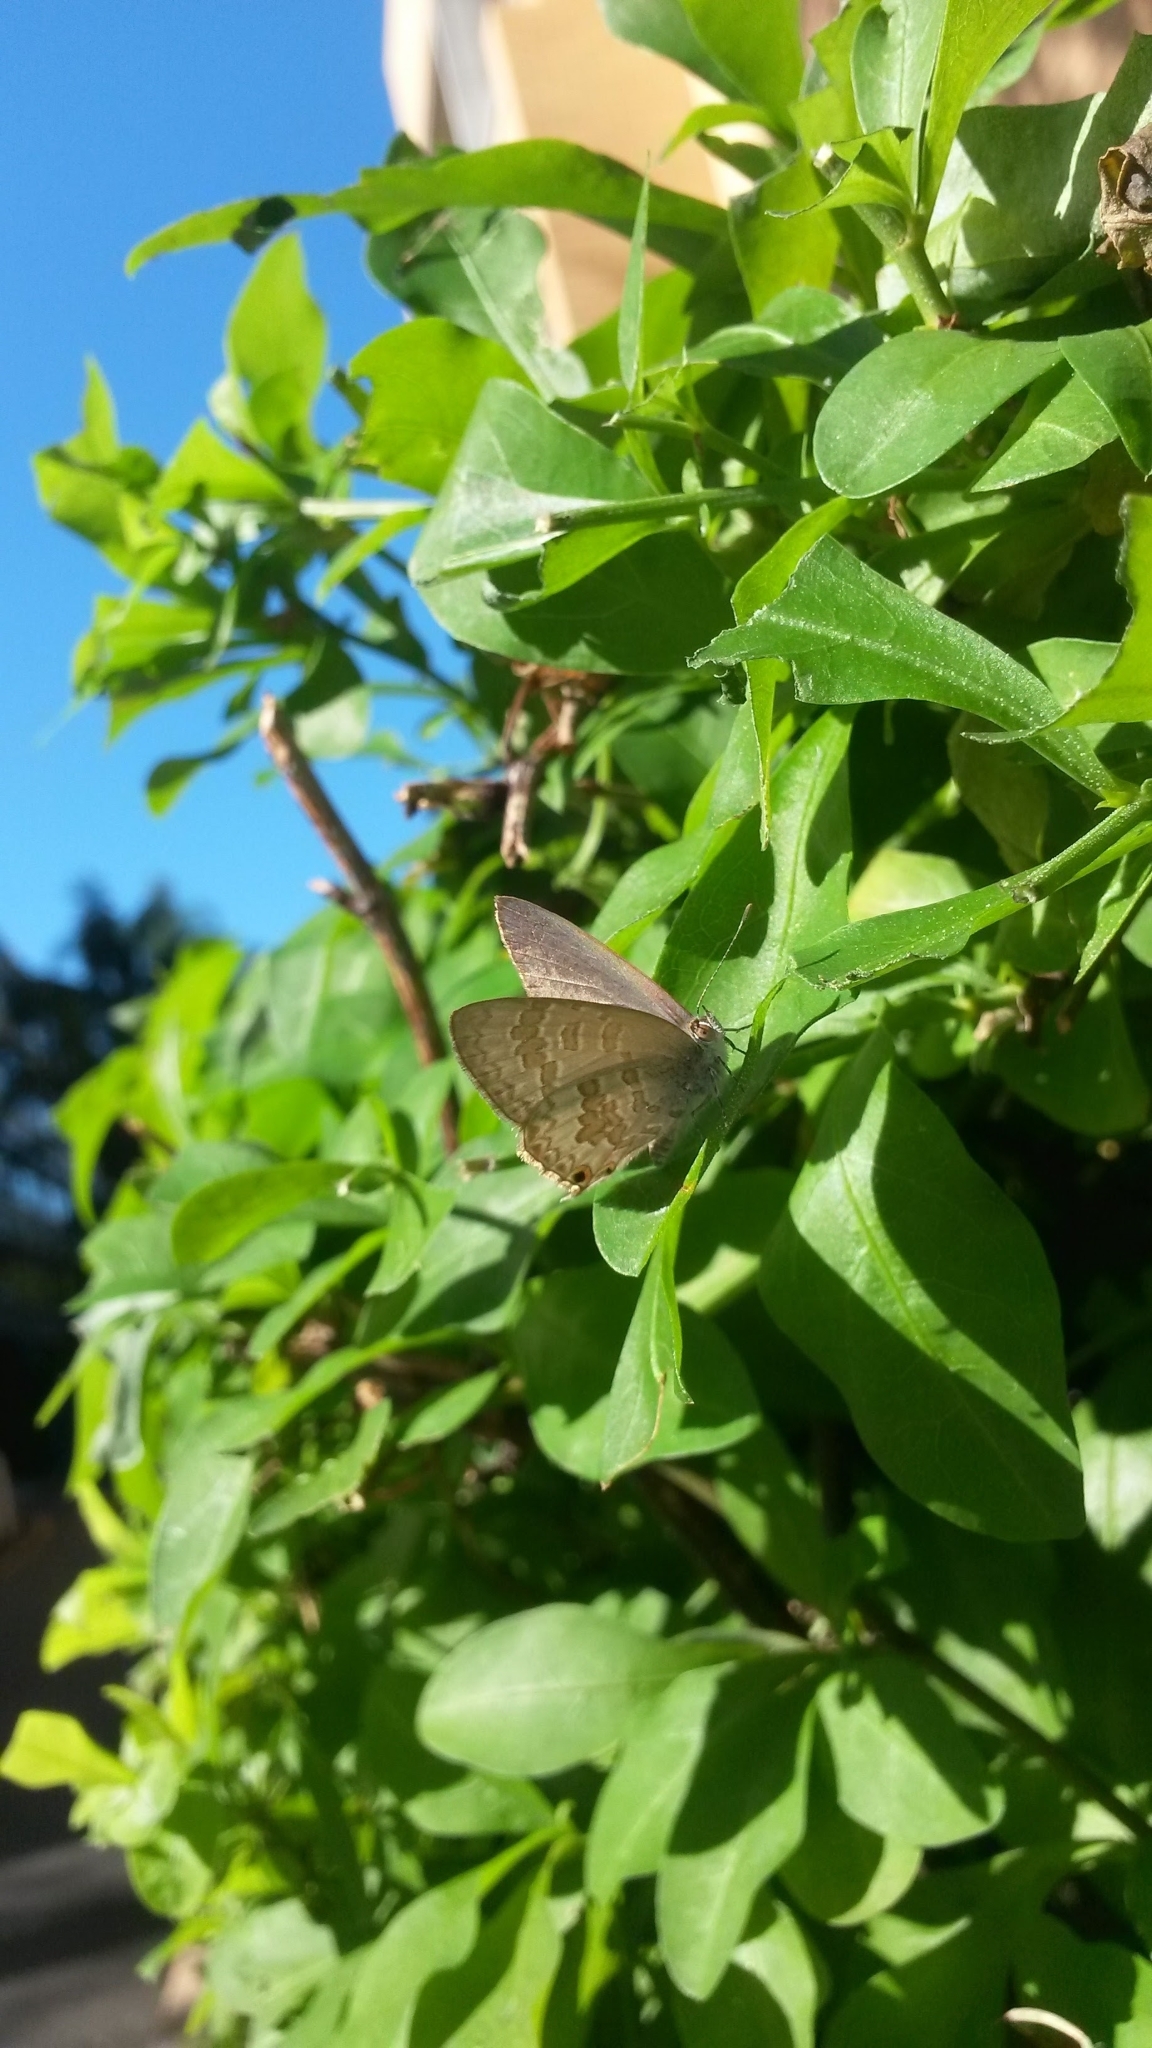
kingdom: Animalia
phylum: Arthropoda
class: Insecta
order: Lepidoptera
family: Lycaenidae
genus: Catopyrops
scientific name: Catopyrops florinda
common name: Speckled line-blue
